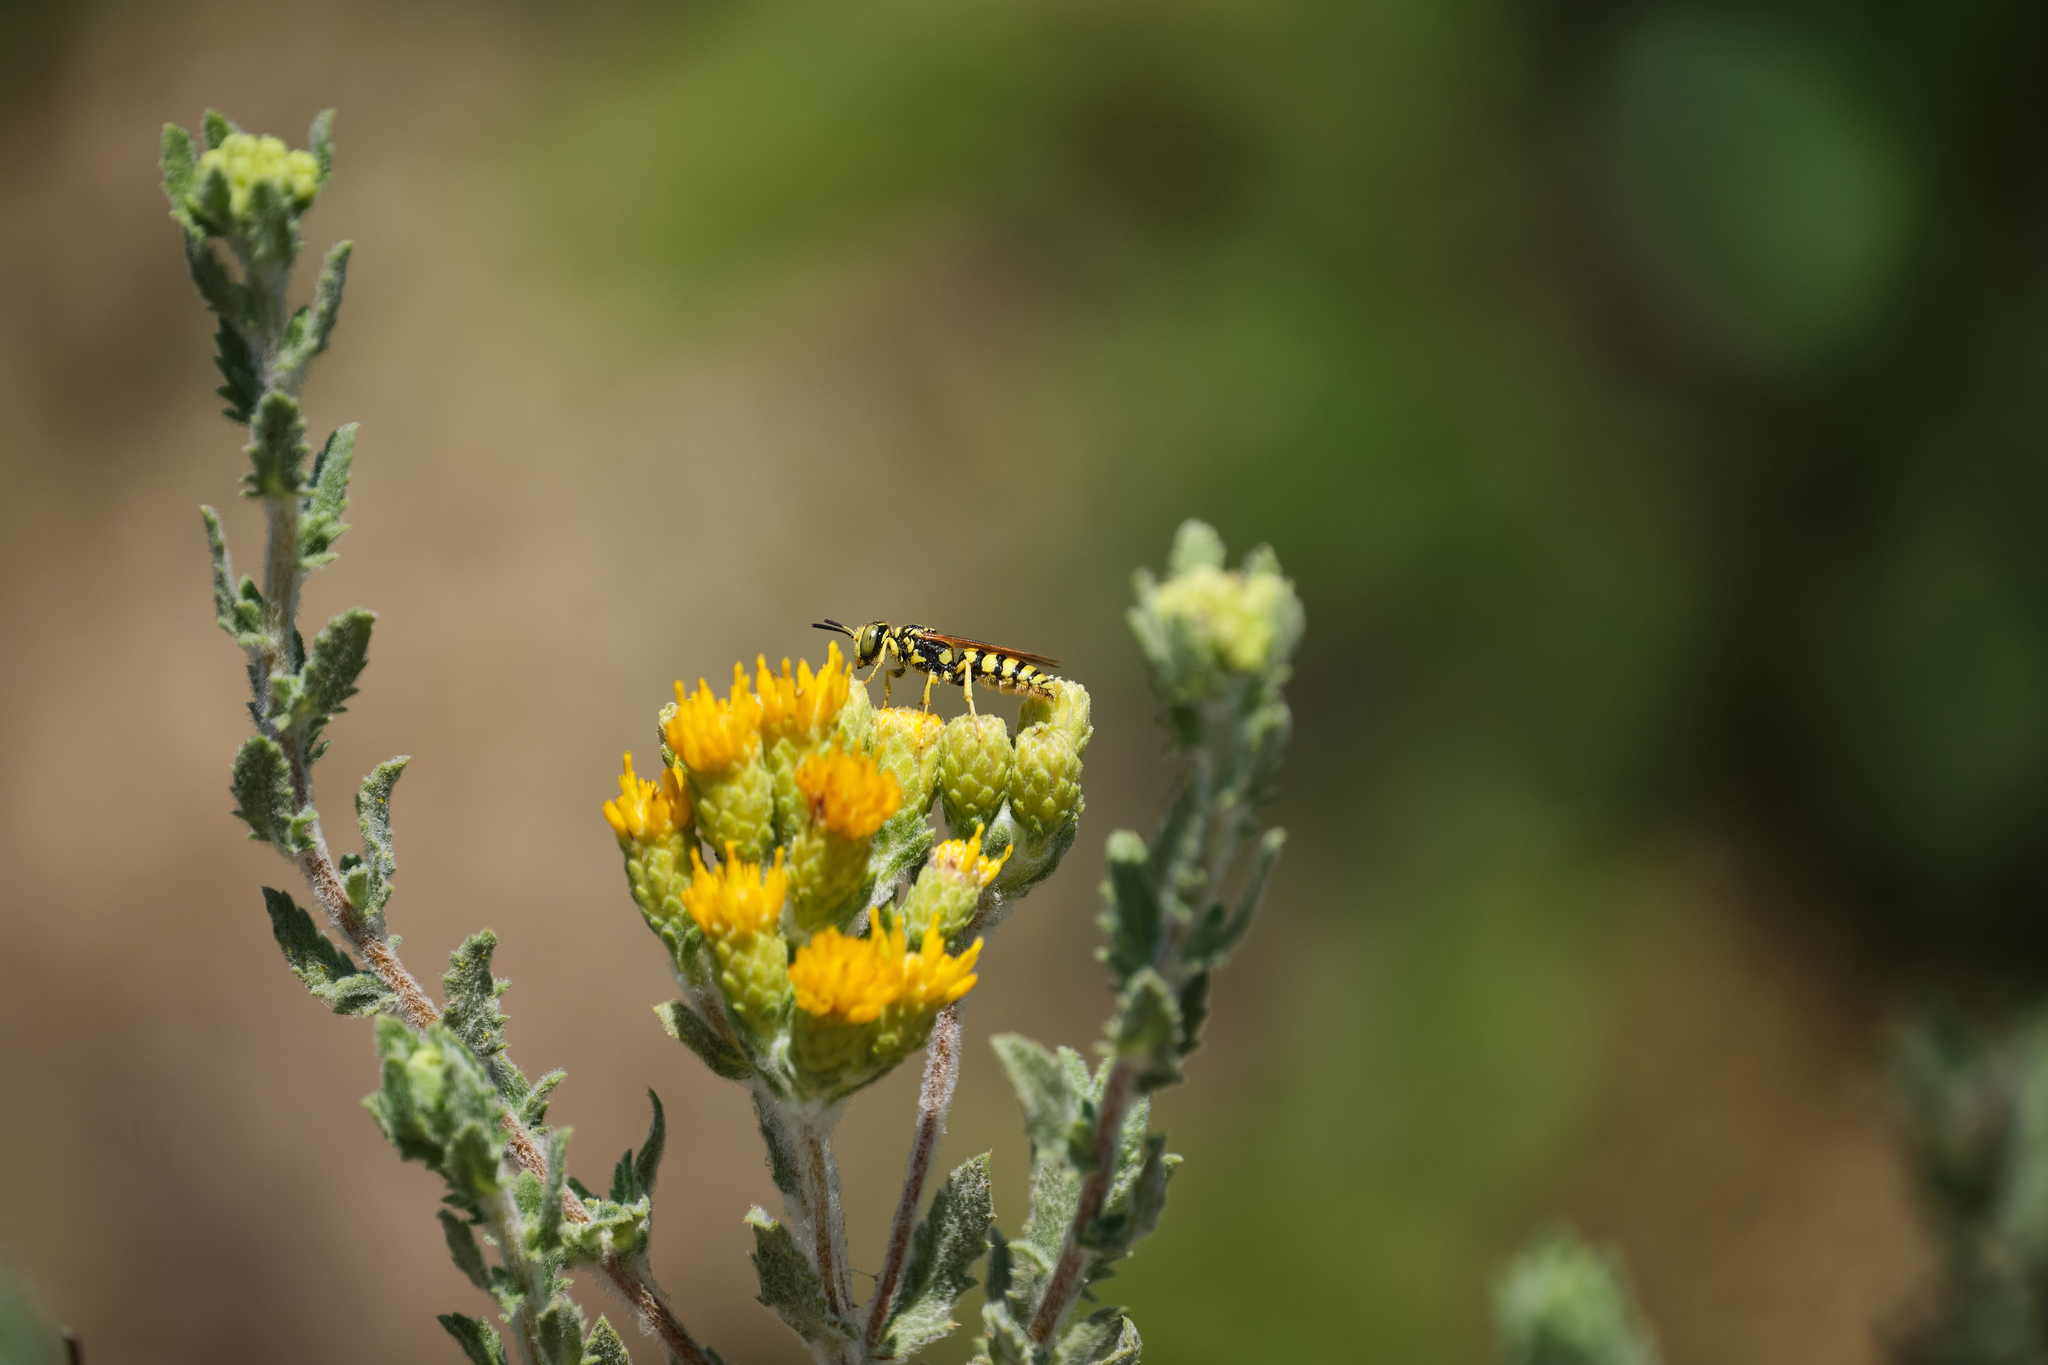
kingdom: Animalia
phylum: Arthropoda
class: Insecta
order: Hymenoptera
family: Crabronidae
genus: Philanthus
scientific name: Philanthus multimaculatus
